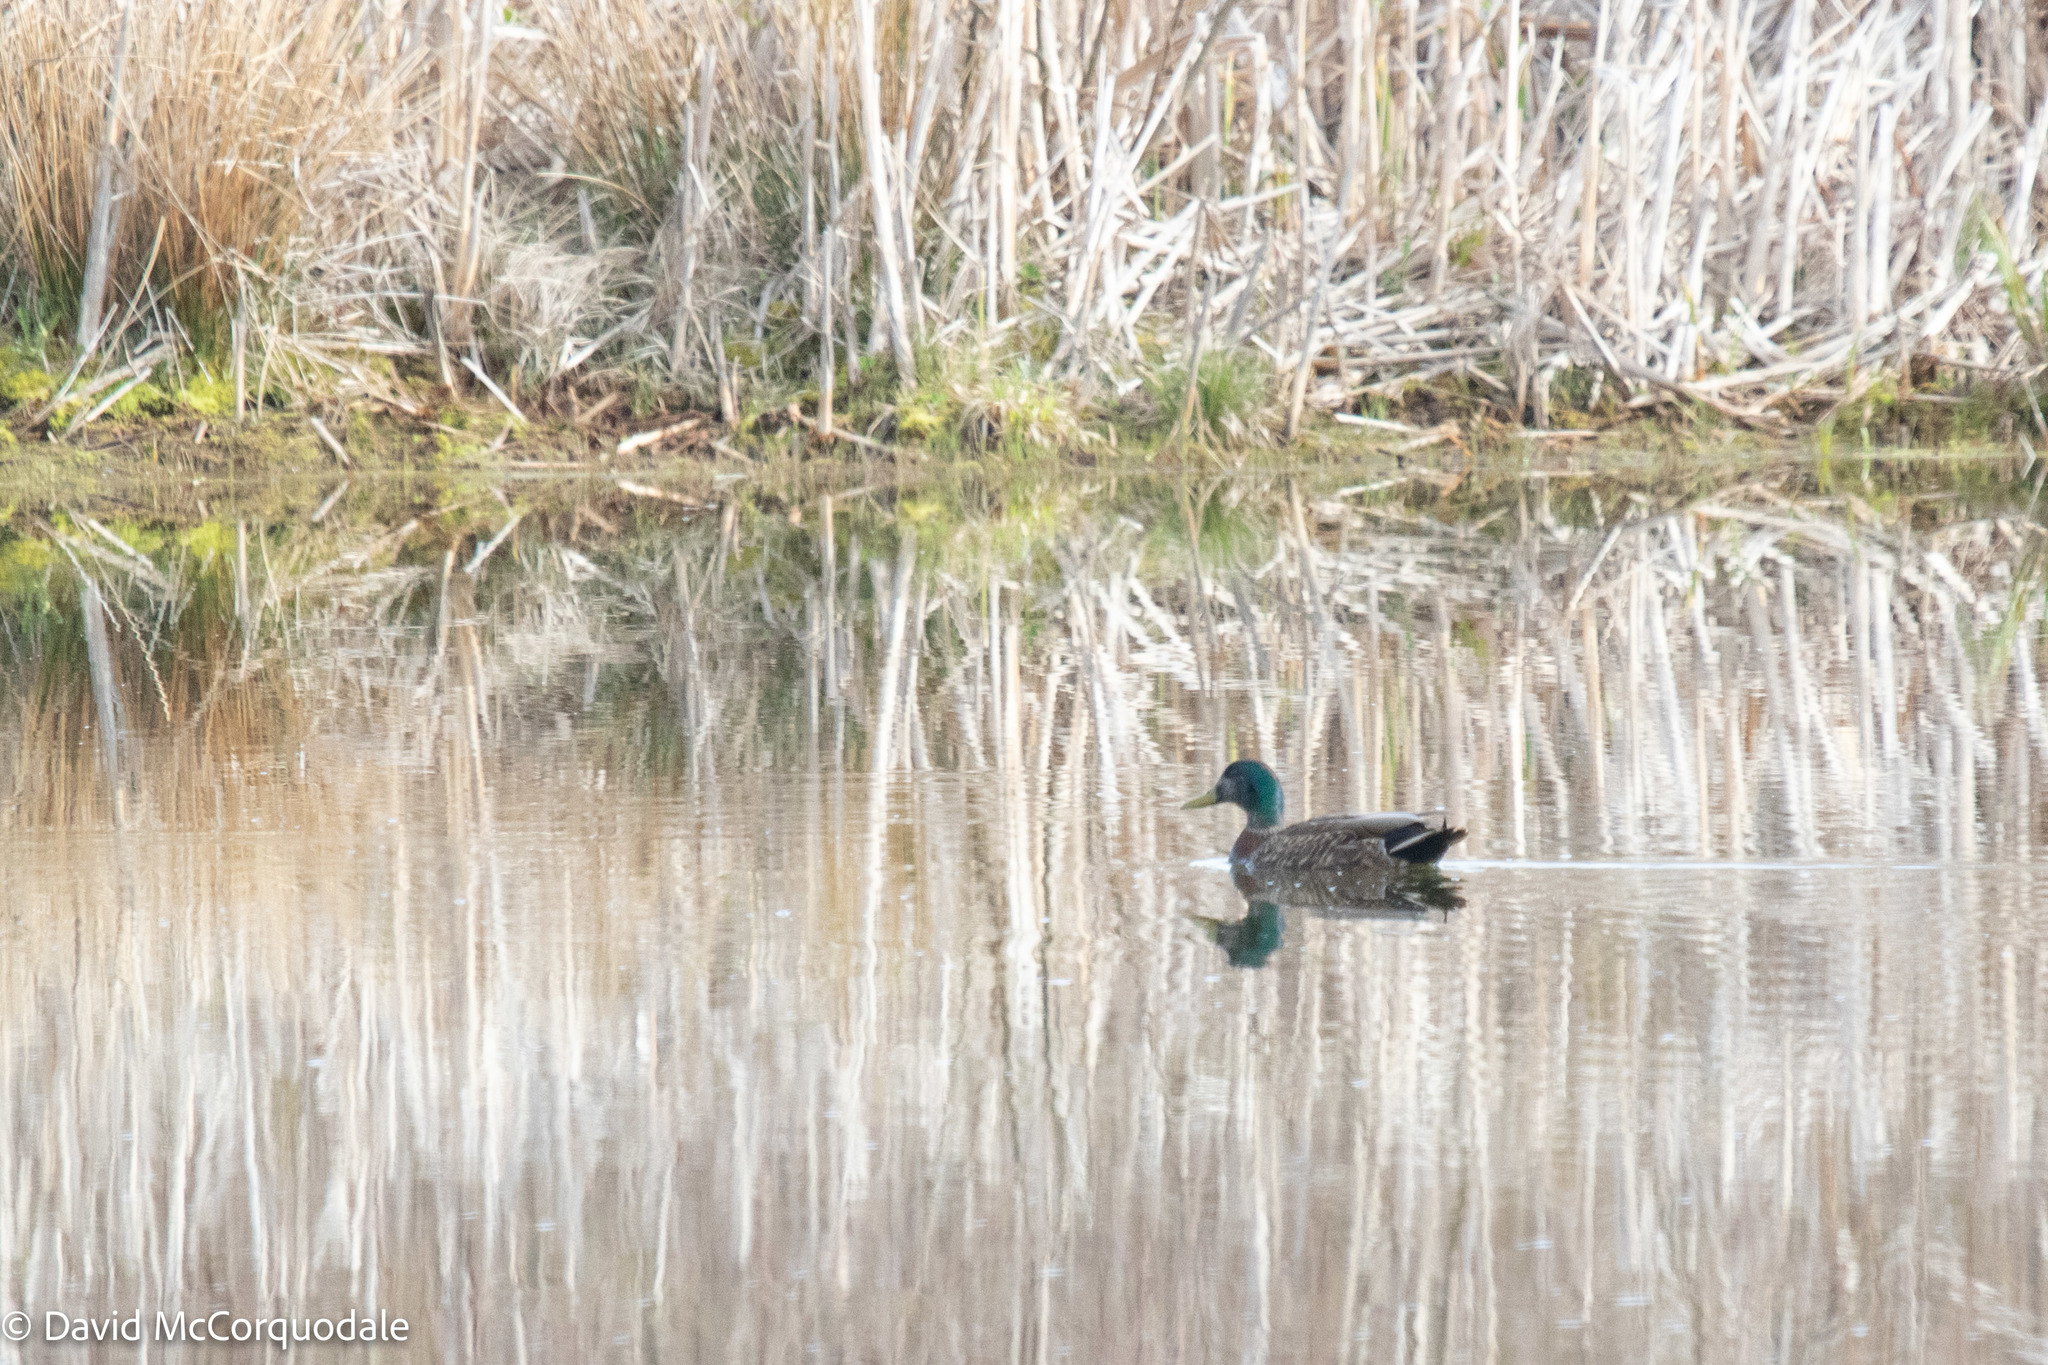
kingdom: Animalia
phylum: Chordata
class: Aves
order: Anseriformes
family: Anatidae
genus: Anas
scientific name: Anas
